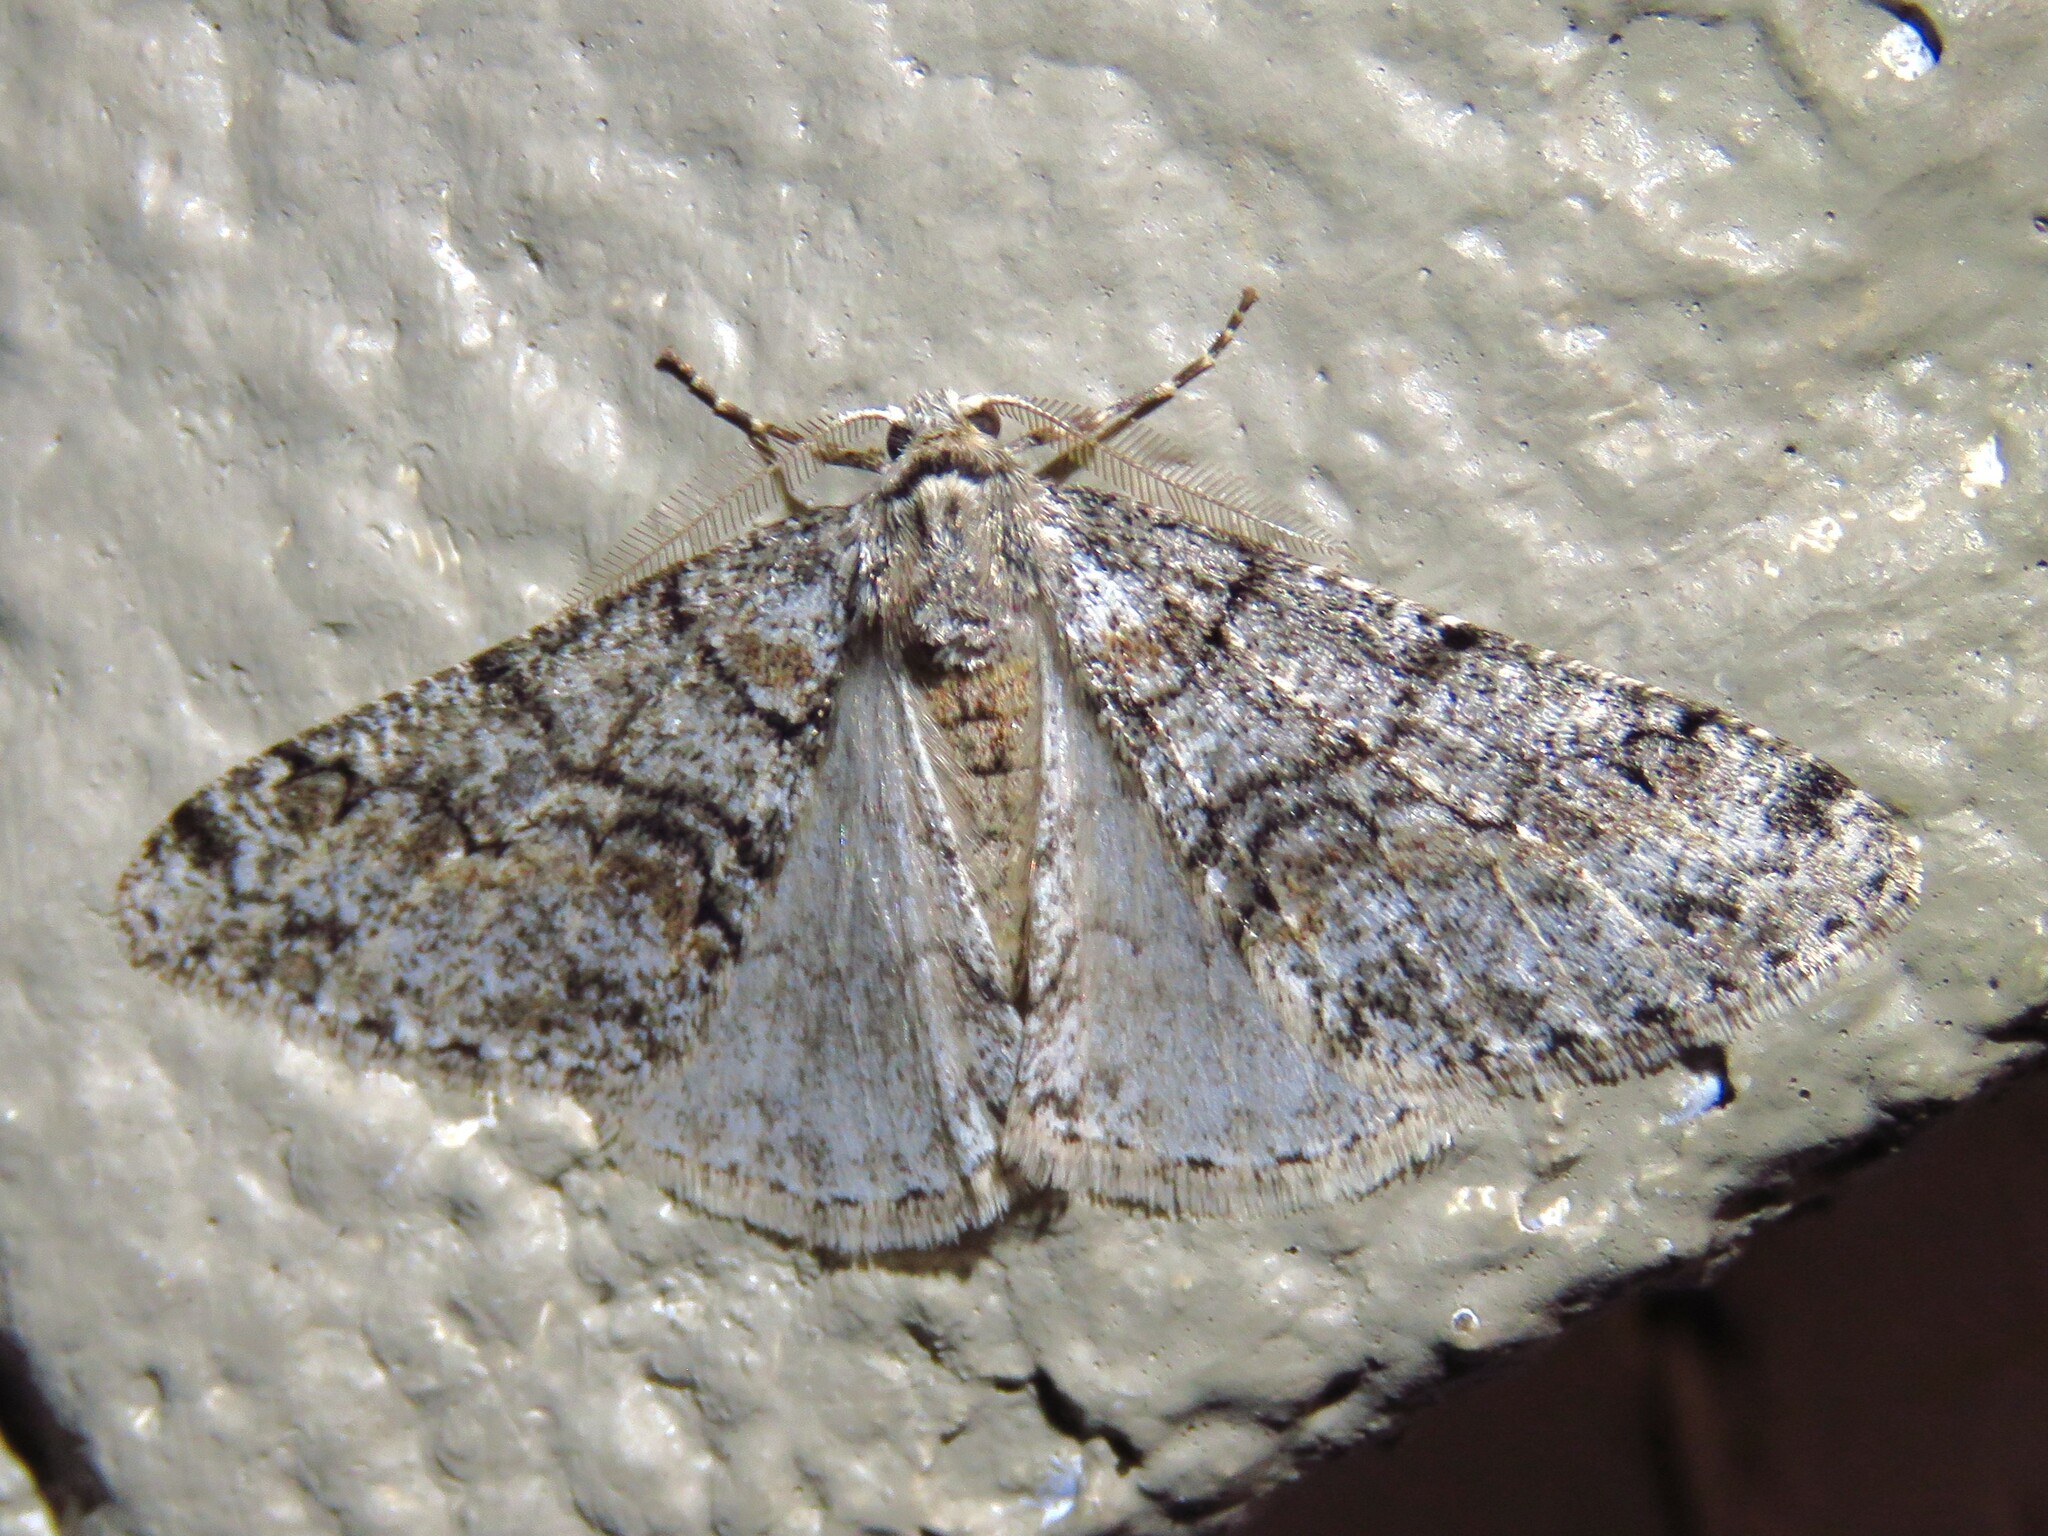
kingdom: Animalia
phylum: Arthropoda
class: Insecta
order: Lepidoptera
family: Geometridae
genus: Phigalia
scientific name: Phigalia denticulata
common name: Toothed phigalia
